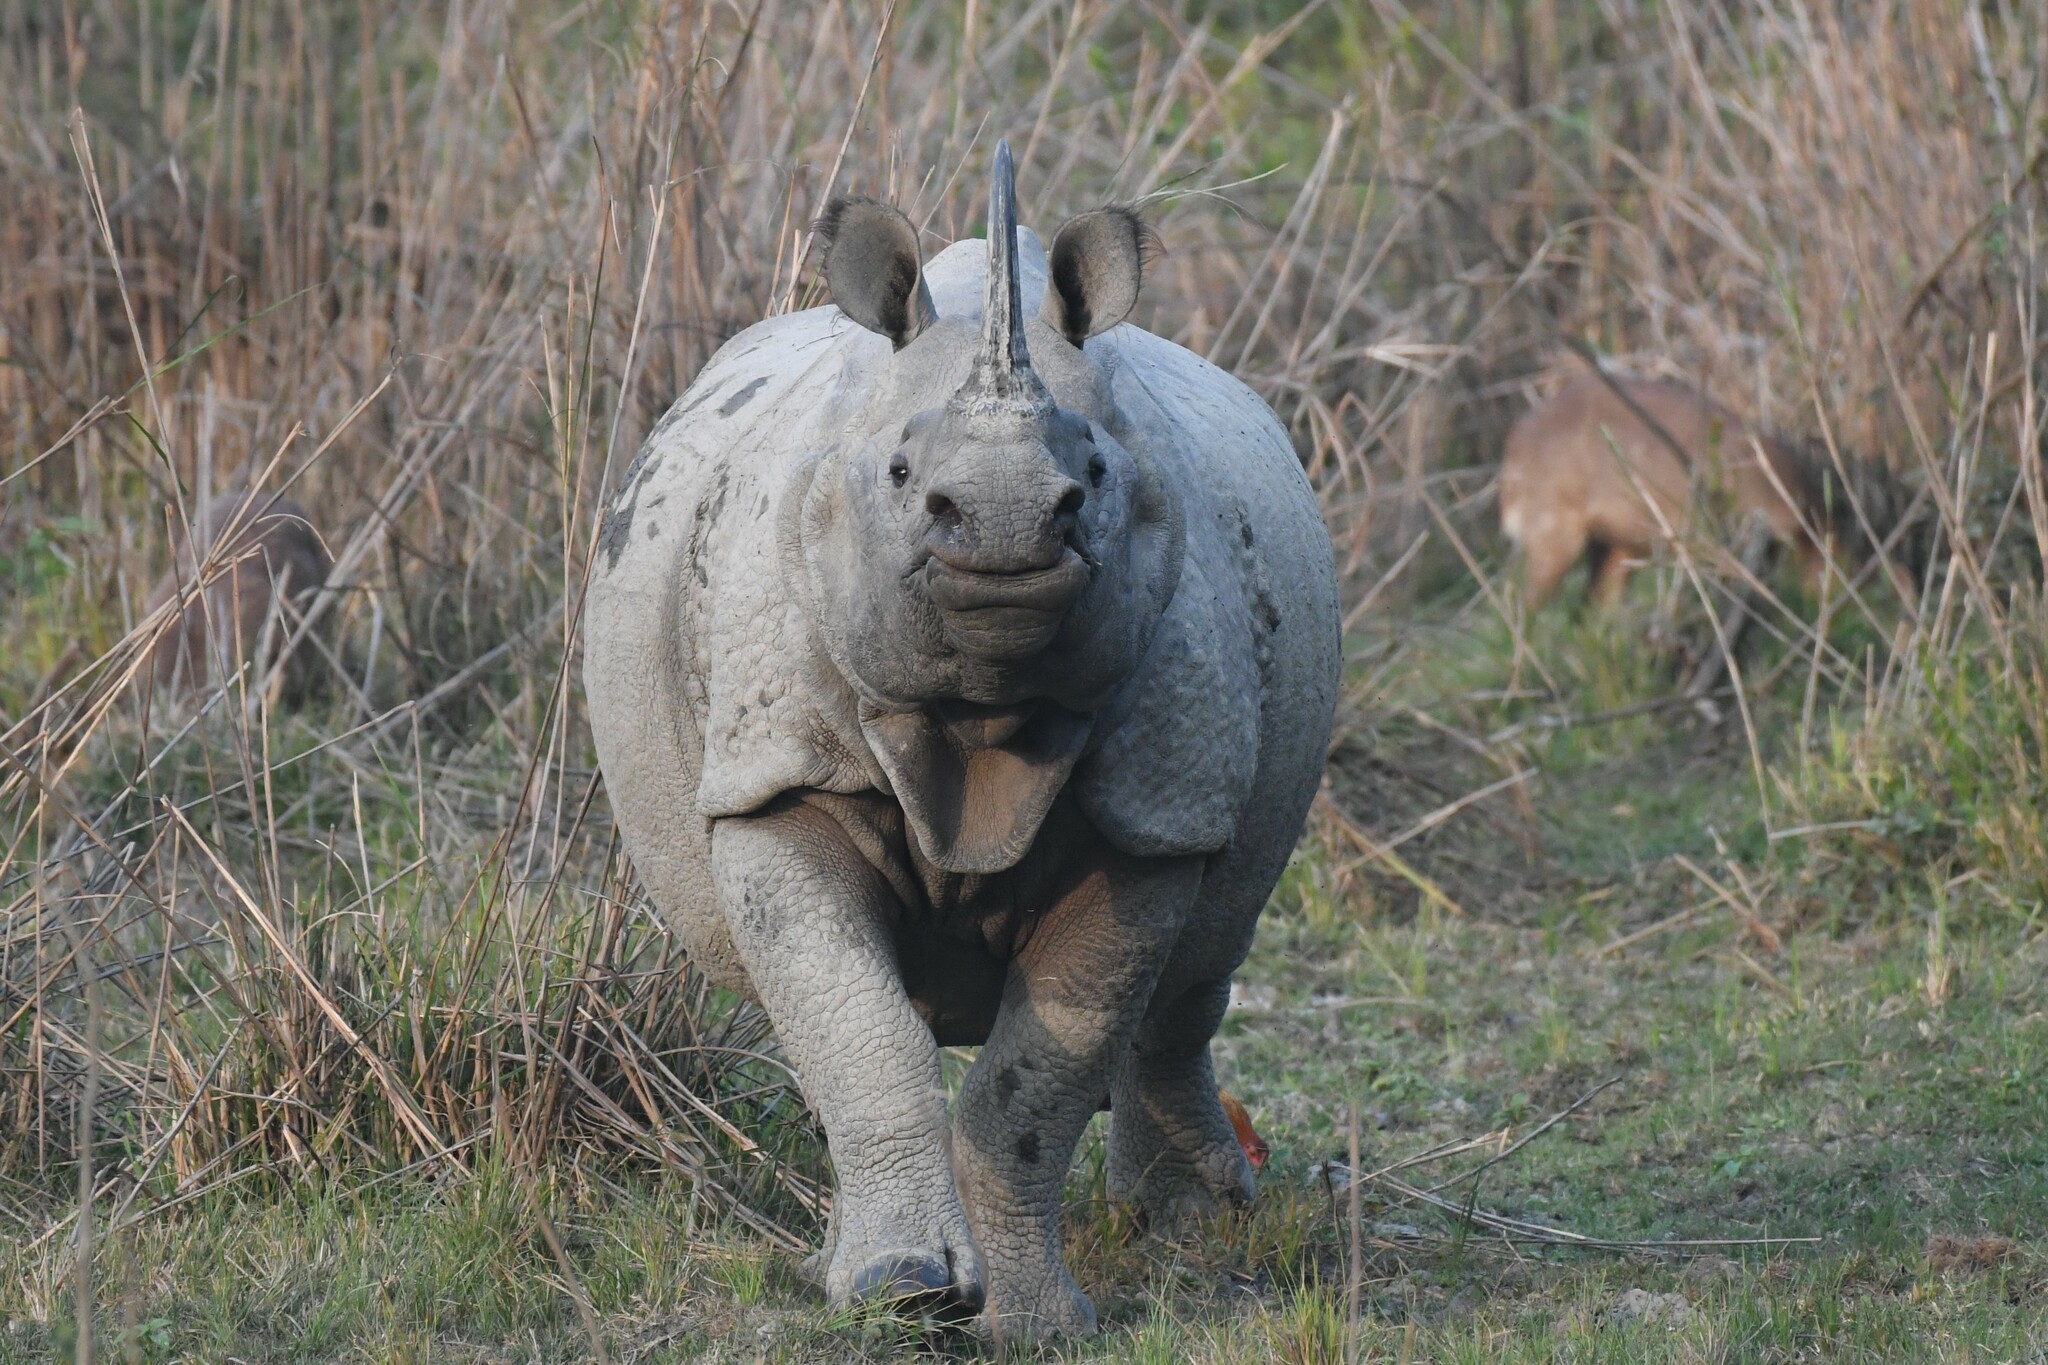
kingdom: Animalia
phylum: Chordata
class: Mammalia
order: Perissodactyla
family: Rhinocerotidae
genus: Rhinoceros
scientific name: Rhinoceros unicornis
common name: Indian rhinoceros
